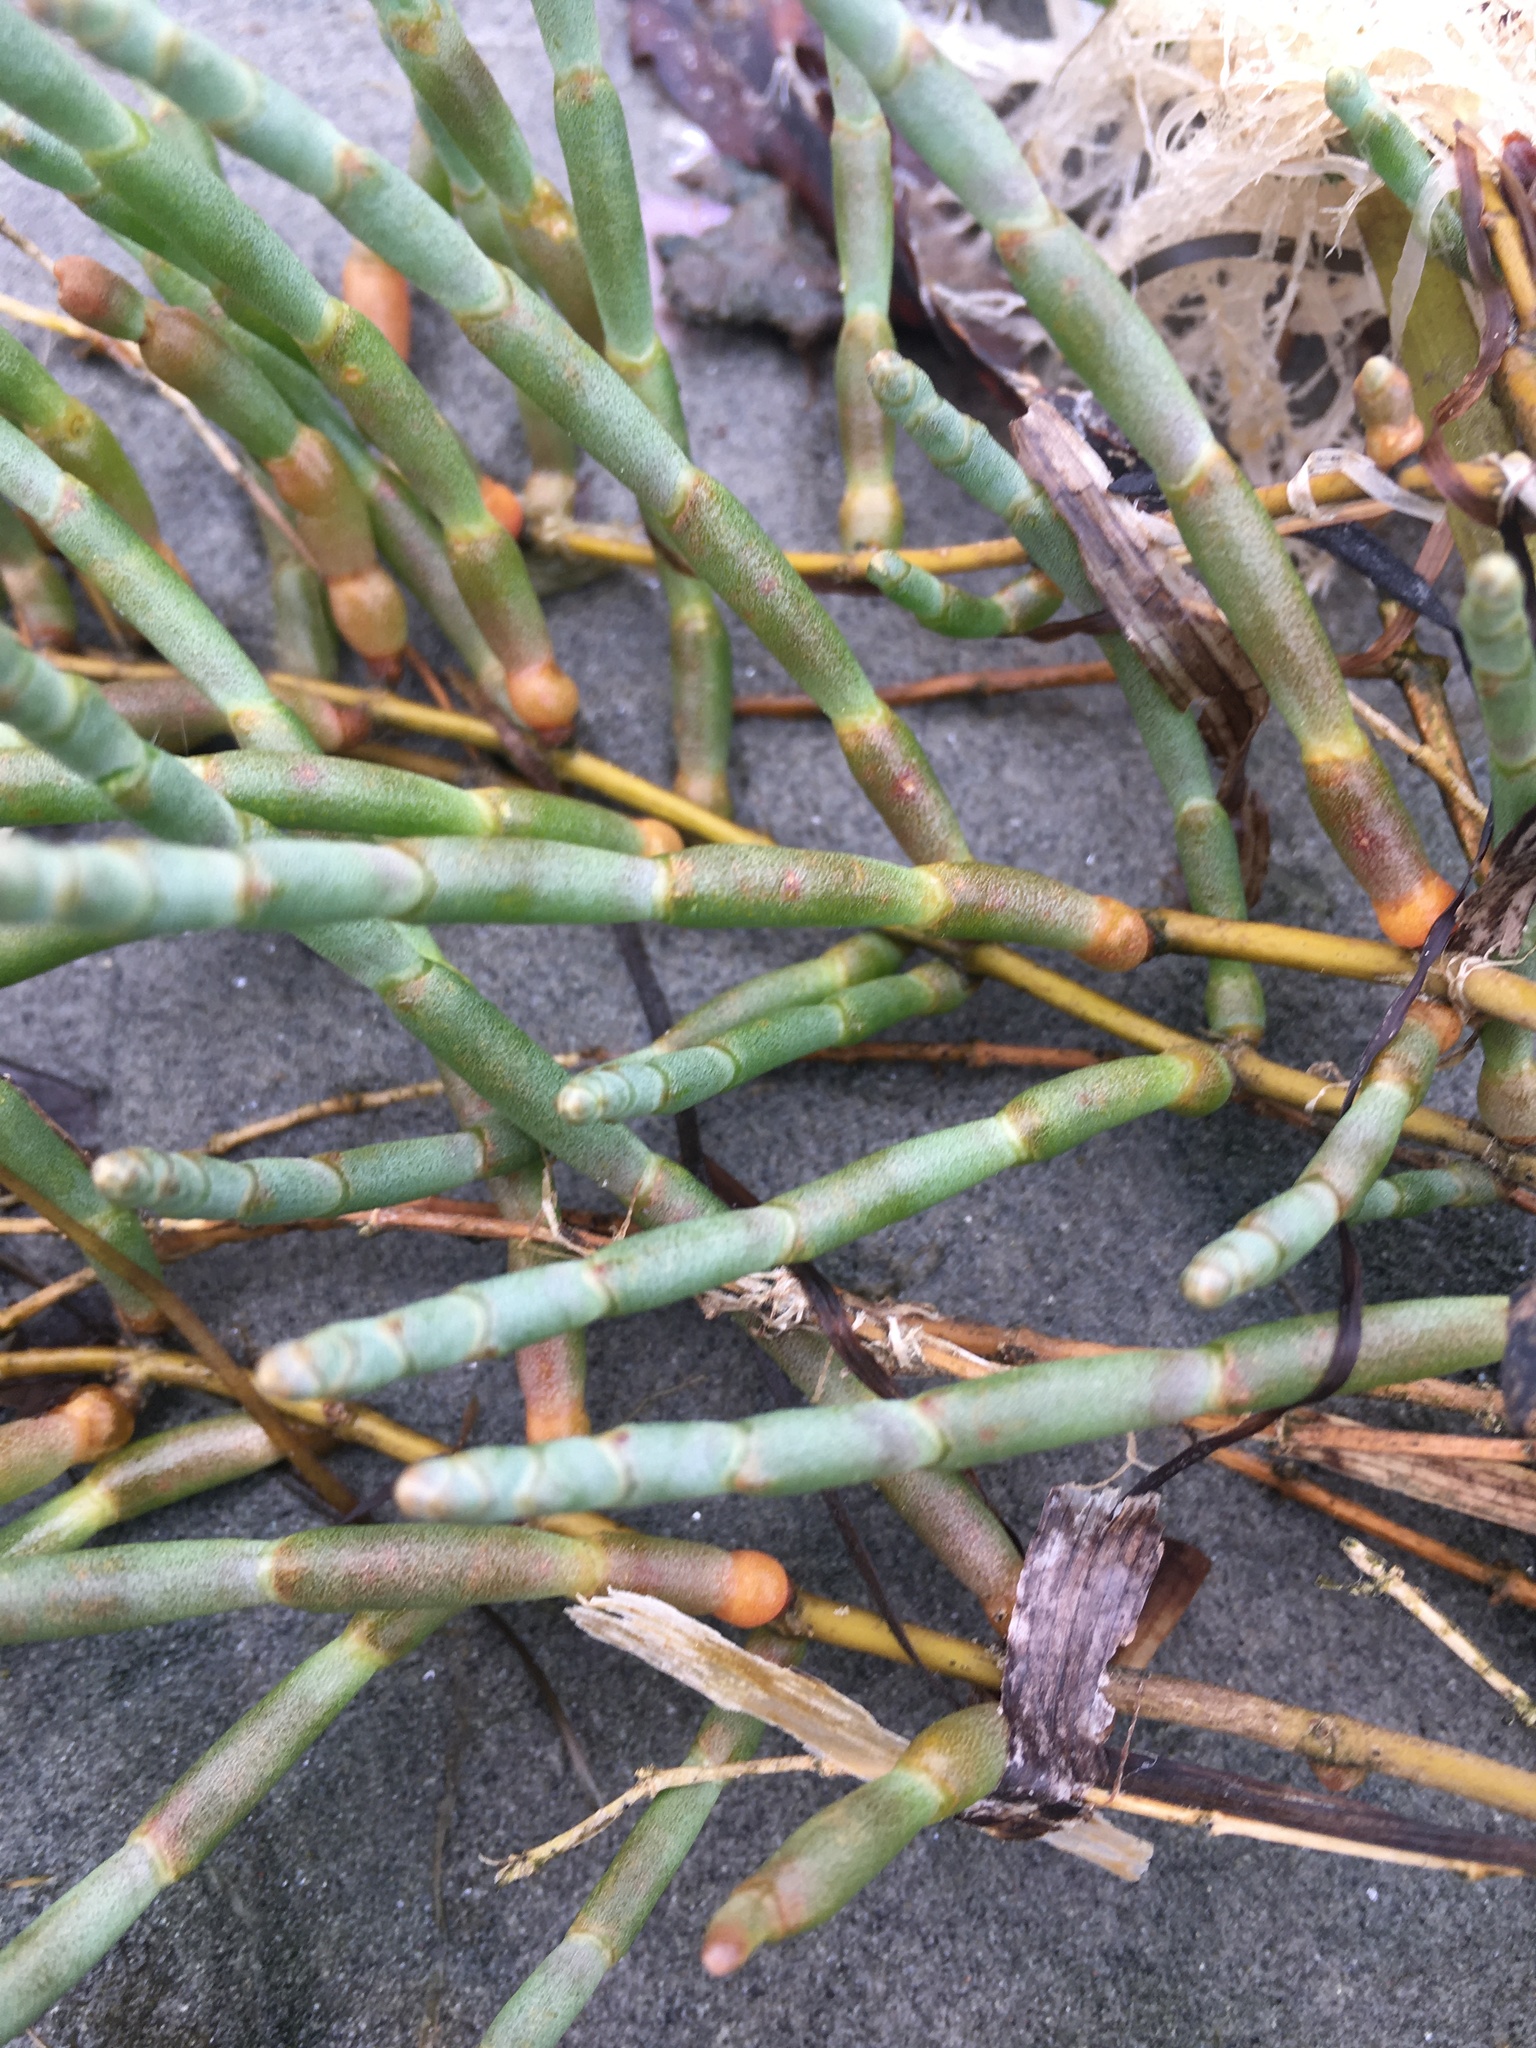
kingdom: Plantae
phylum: Tracheophyta
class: Magnoliopsida
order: Caryophyllales
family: Amaranthaceae
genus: Salicornia
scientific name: Salicornia pacifica
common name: Pacific glasswort
